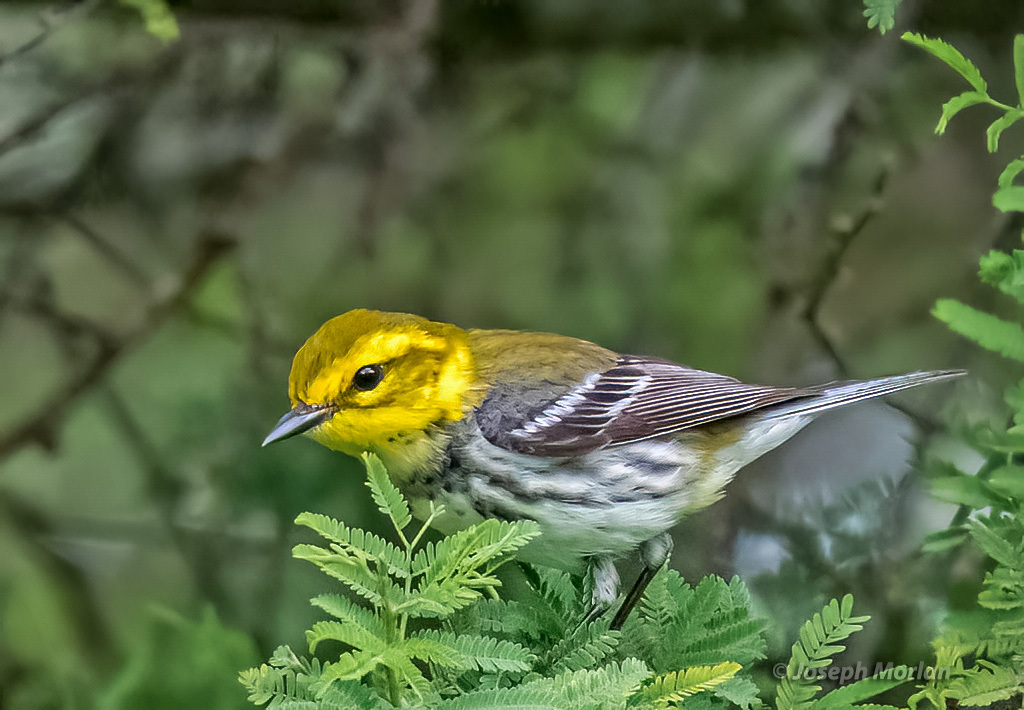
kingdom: Animalia
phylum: Chordata
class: Aves
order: Passeriformes
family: Parulidae
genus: Setophaga
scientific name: Setophaga virens
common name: Black-throated green warbler
